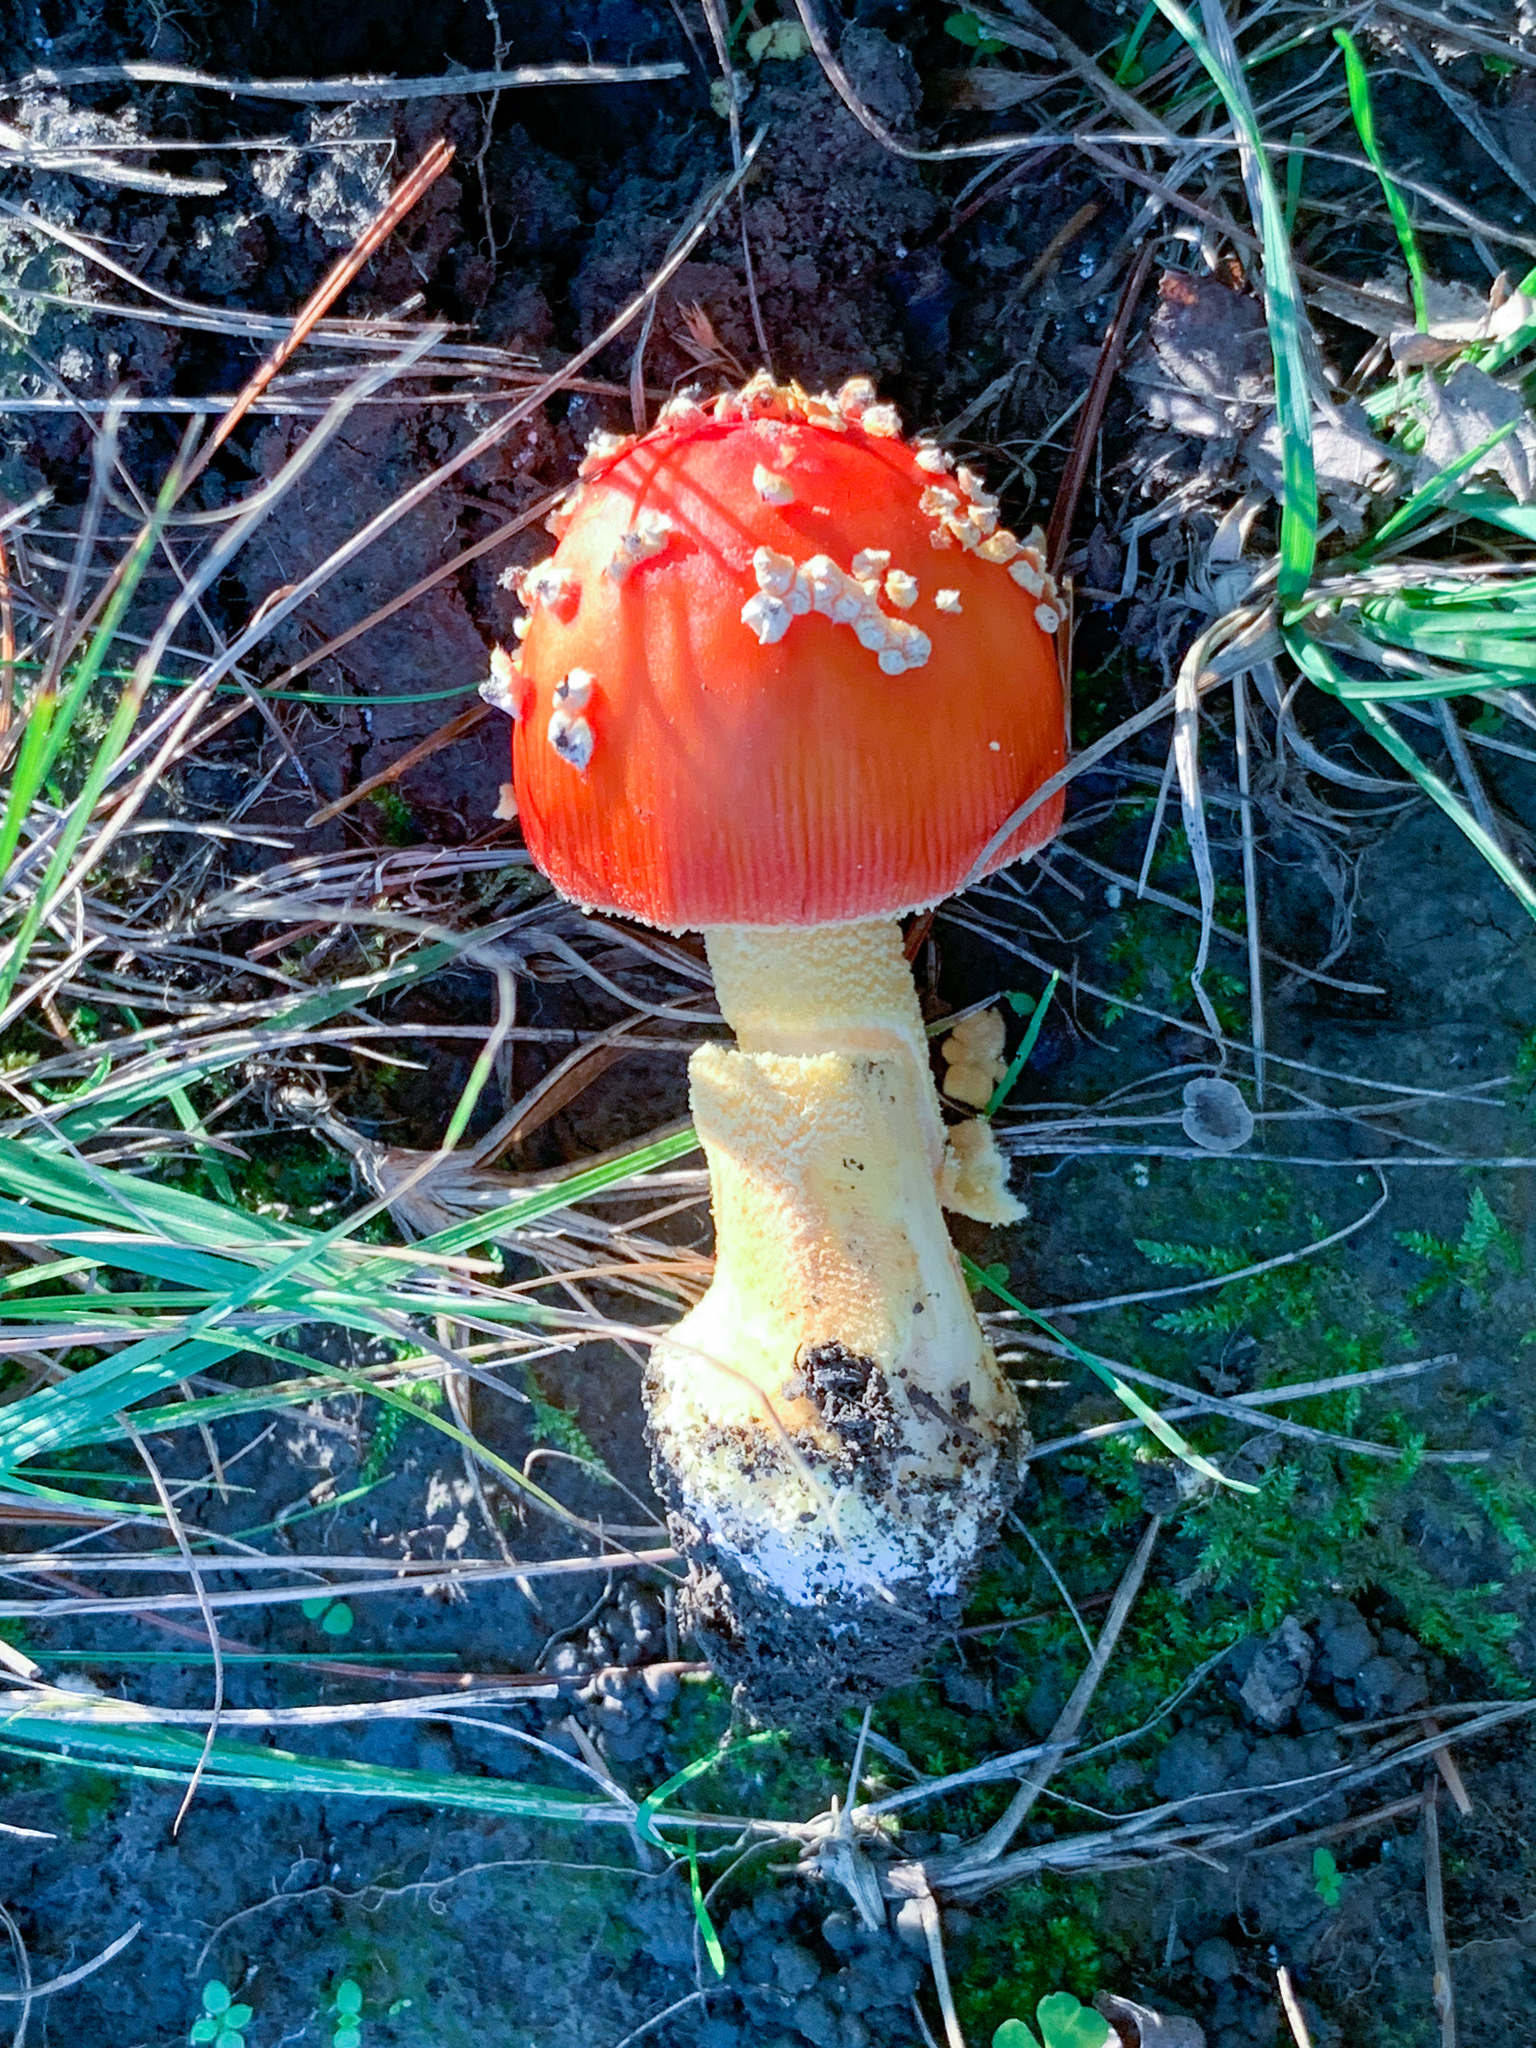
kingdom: Fungi
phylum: Basidiomycota
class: Agaricomycetes
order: Agaricales
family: Amanitaceae
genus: Amanita
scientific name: Amanita parcivolvata
